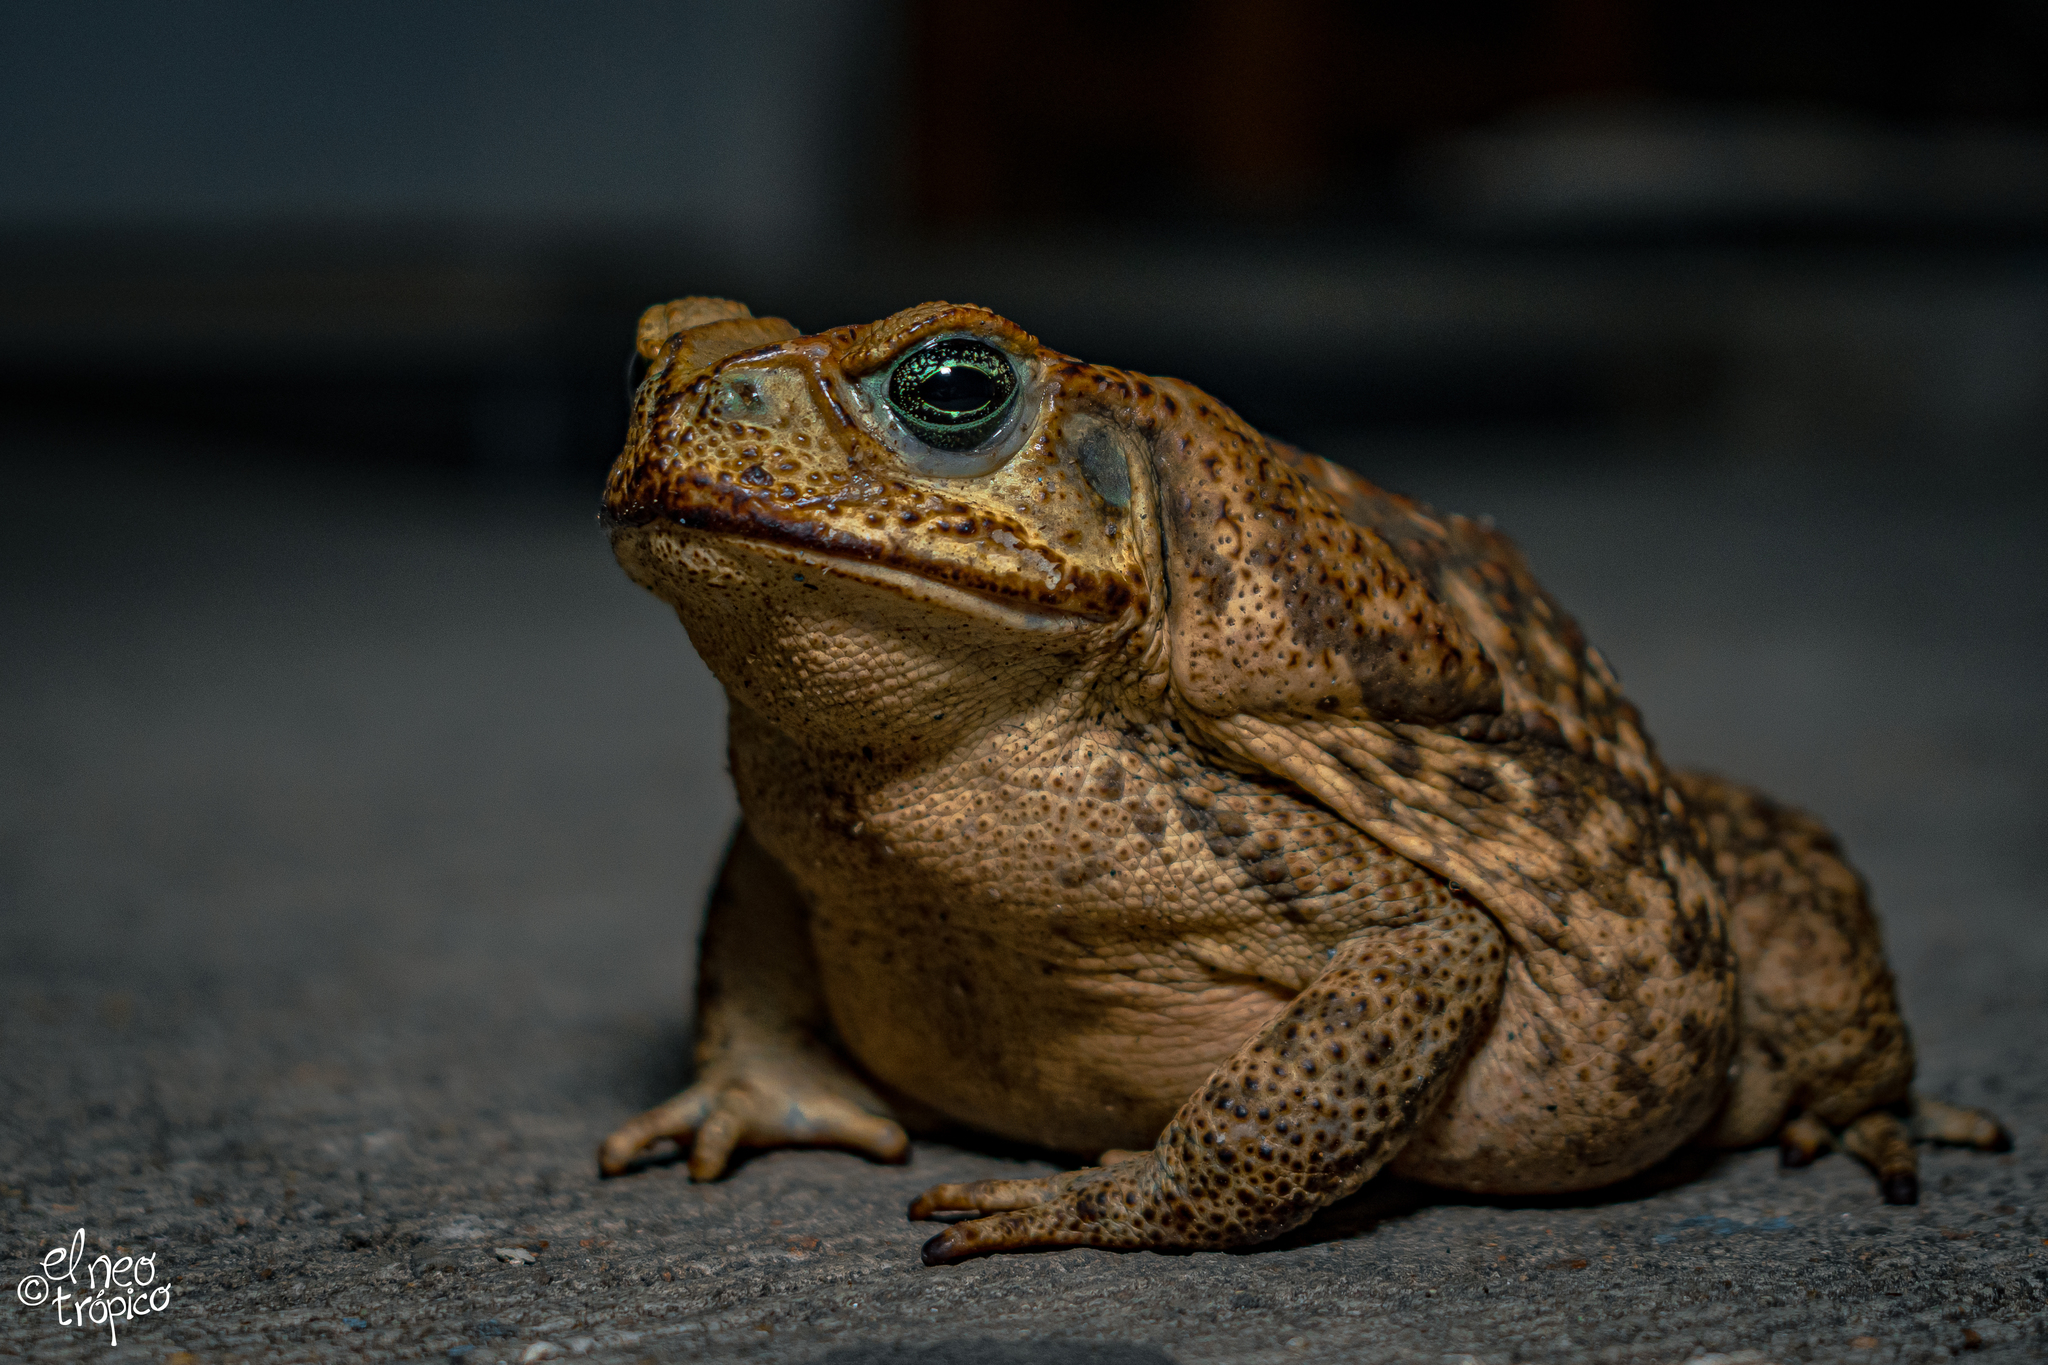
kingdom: Animalia
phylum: Chordata
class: Amphibia
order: Anura
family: Bufonidae
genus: Rhinella
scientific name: Rhinella horribilis
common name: Mesoamerican cane toad
